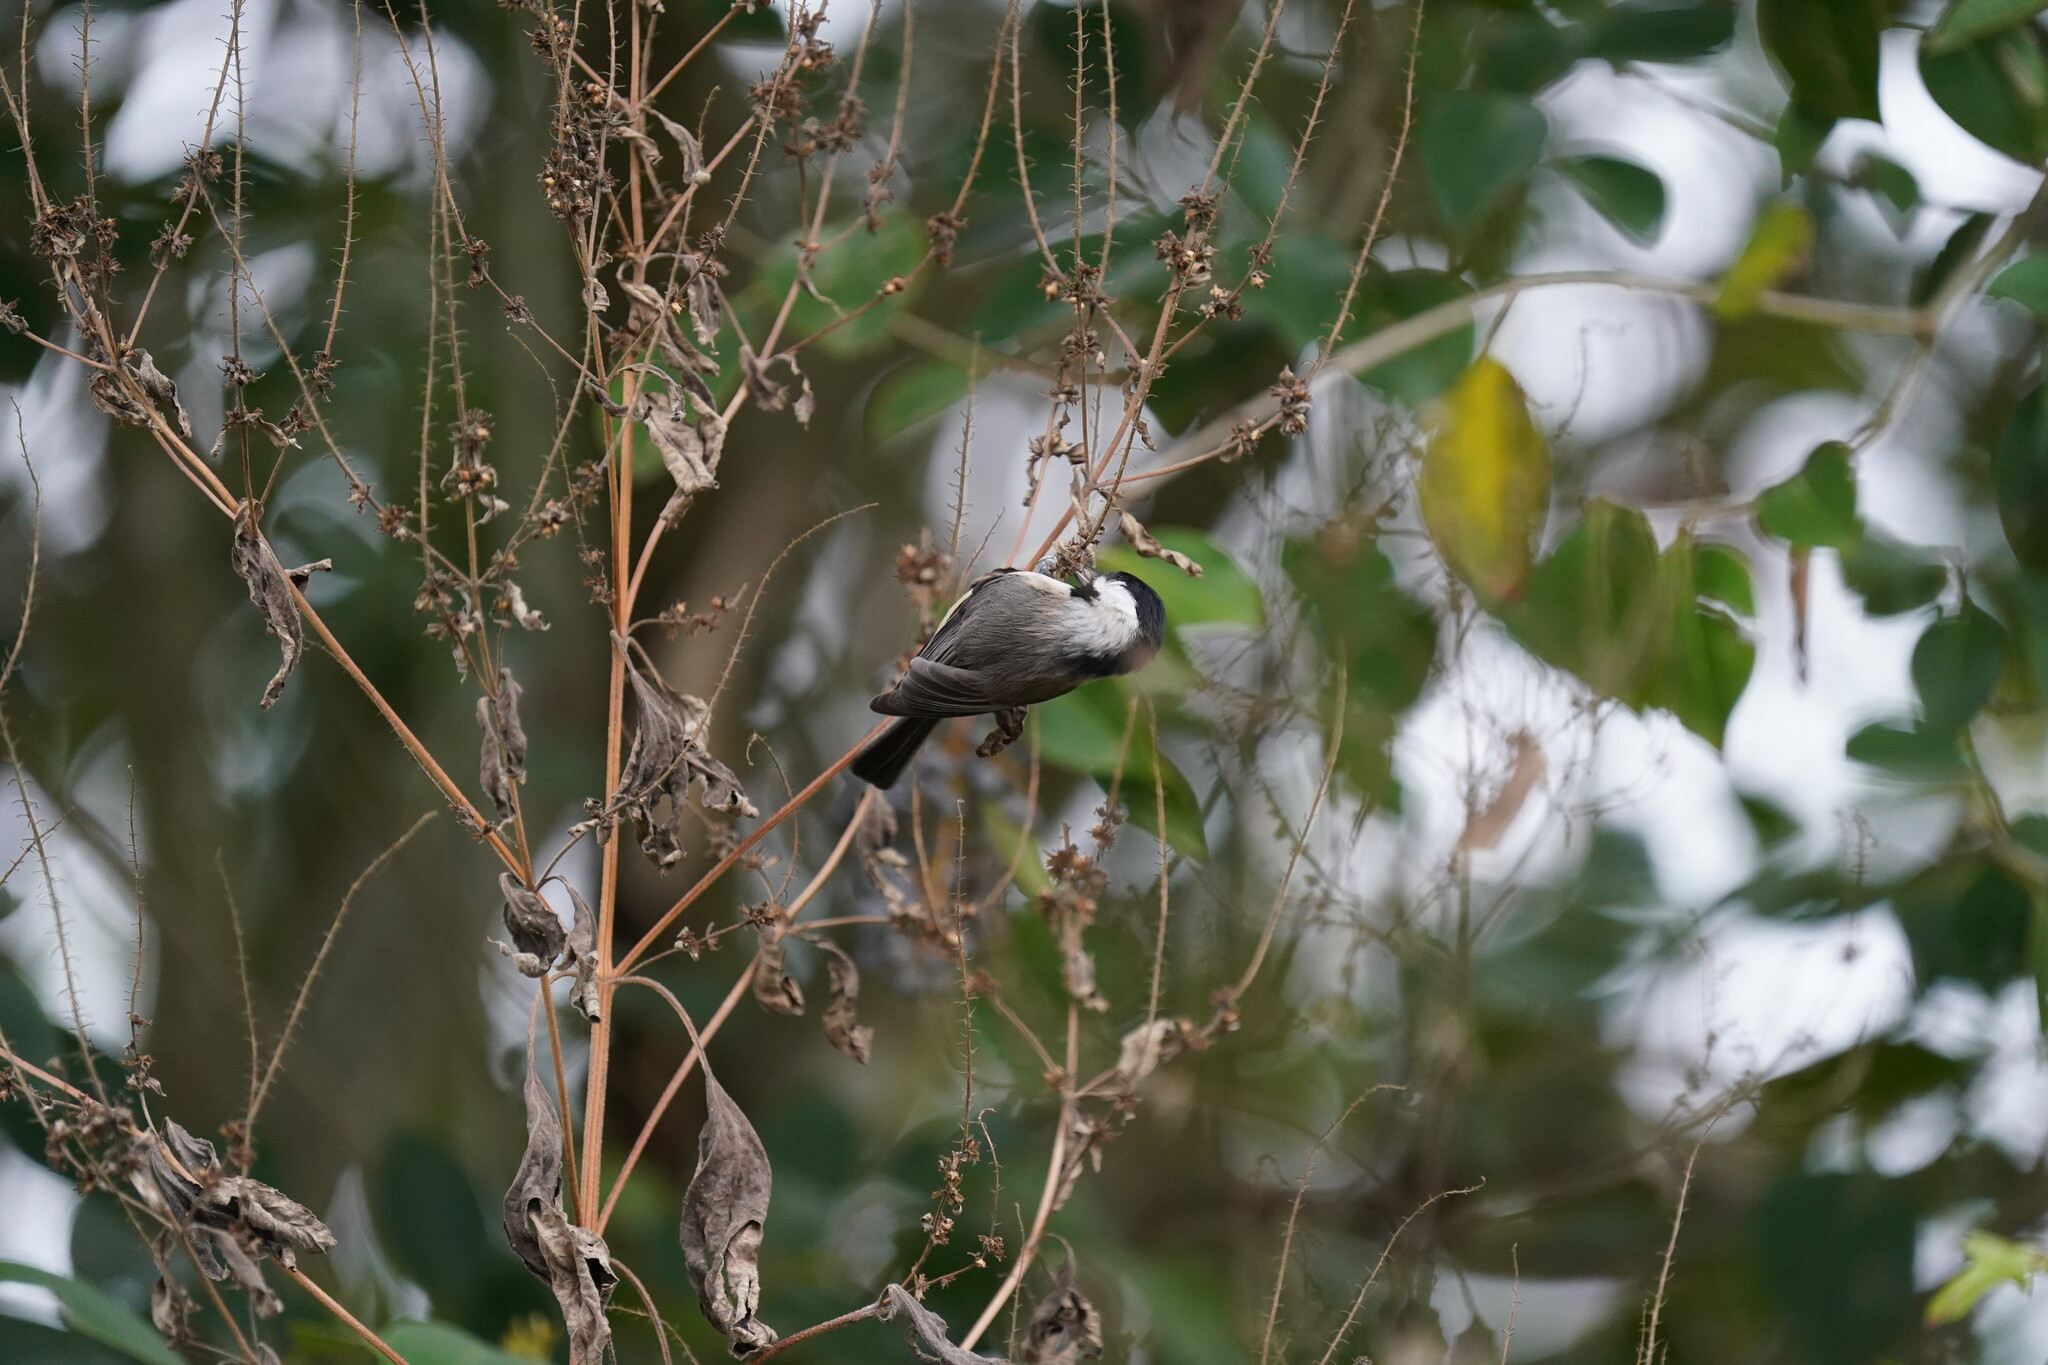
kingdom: Animalia
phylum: Chordata
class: Aves
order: Passeriformes
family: Paridae
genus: Poecile
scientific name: Poecile carolinensis
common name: Carolina chickadee
